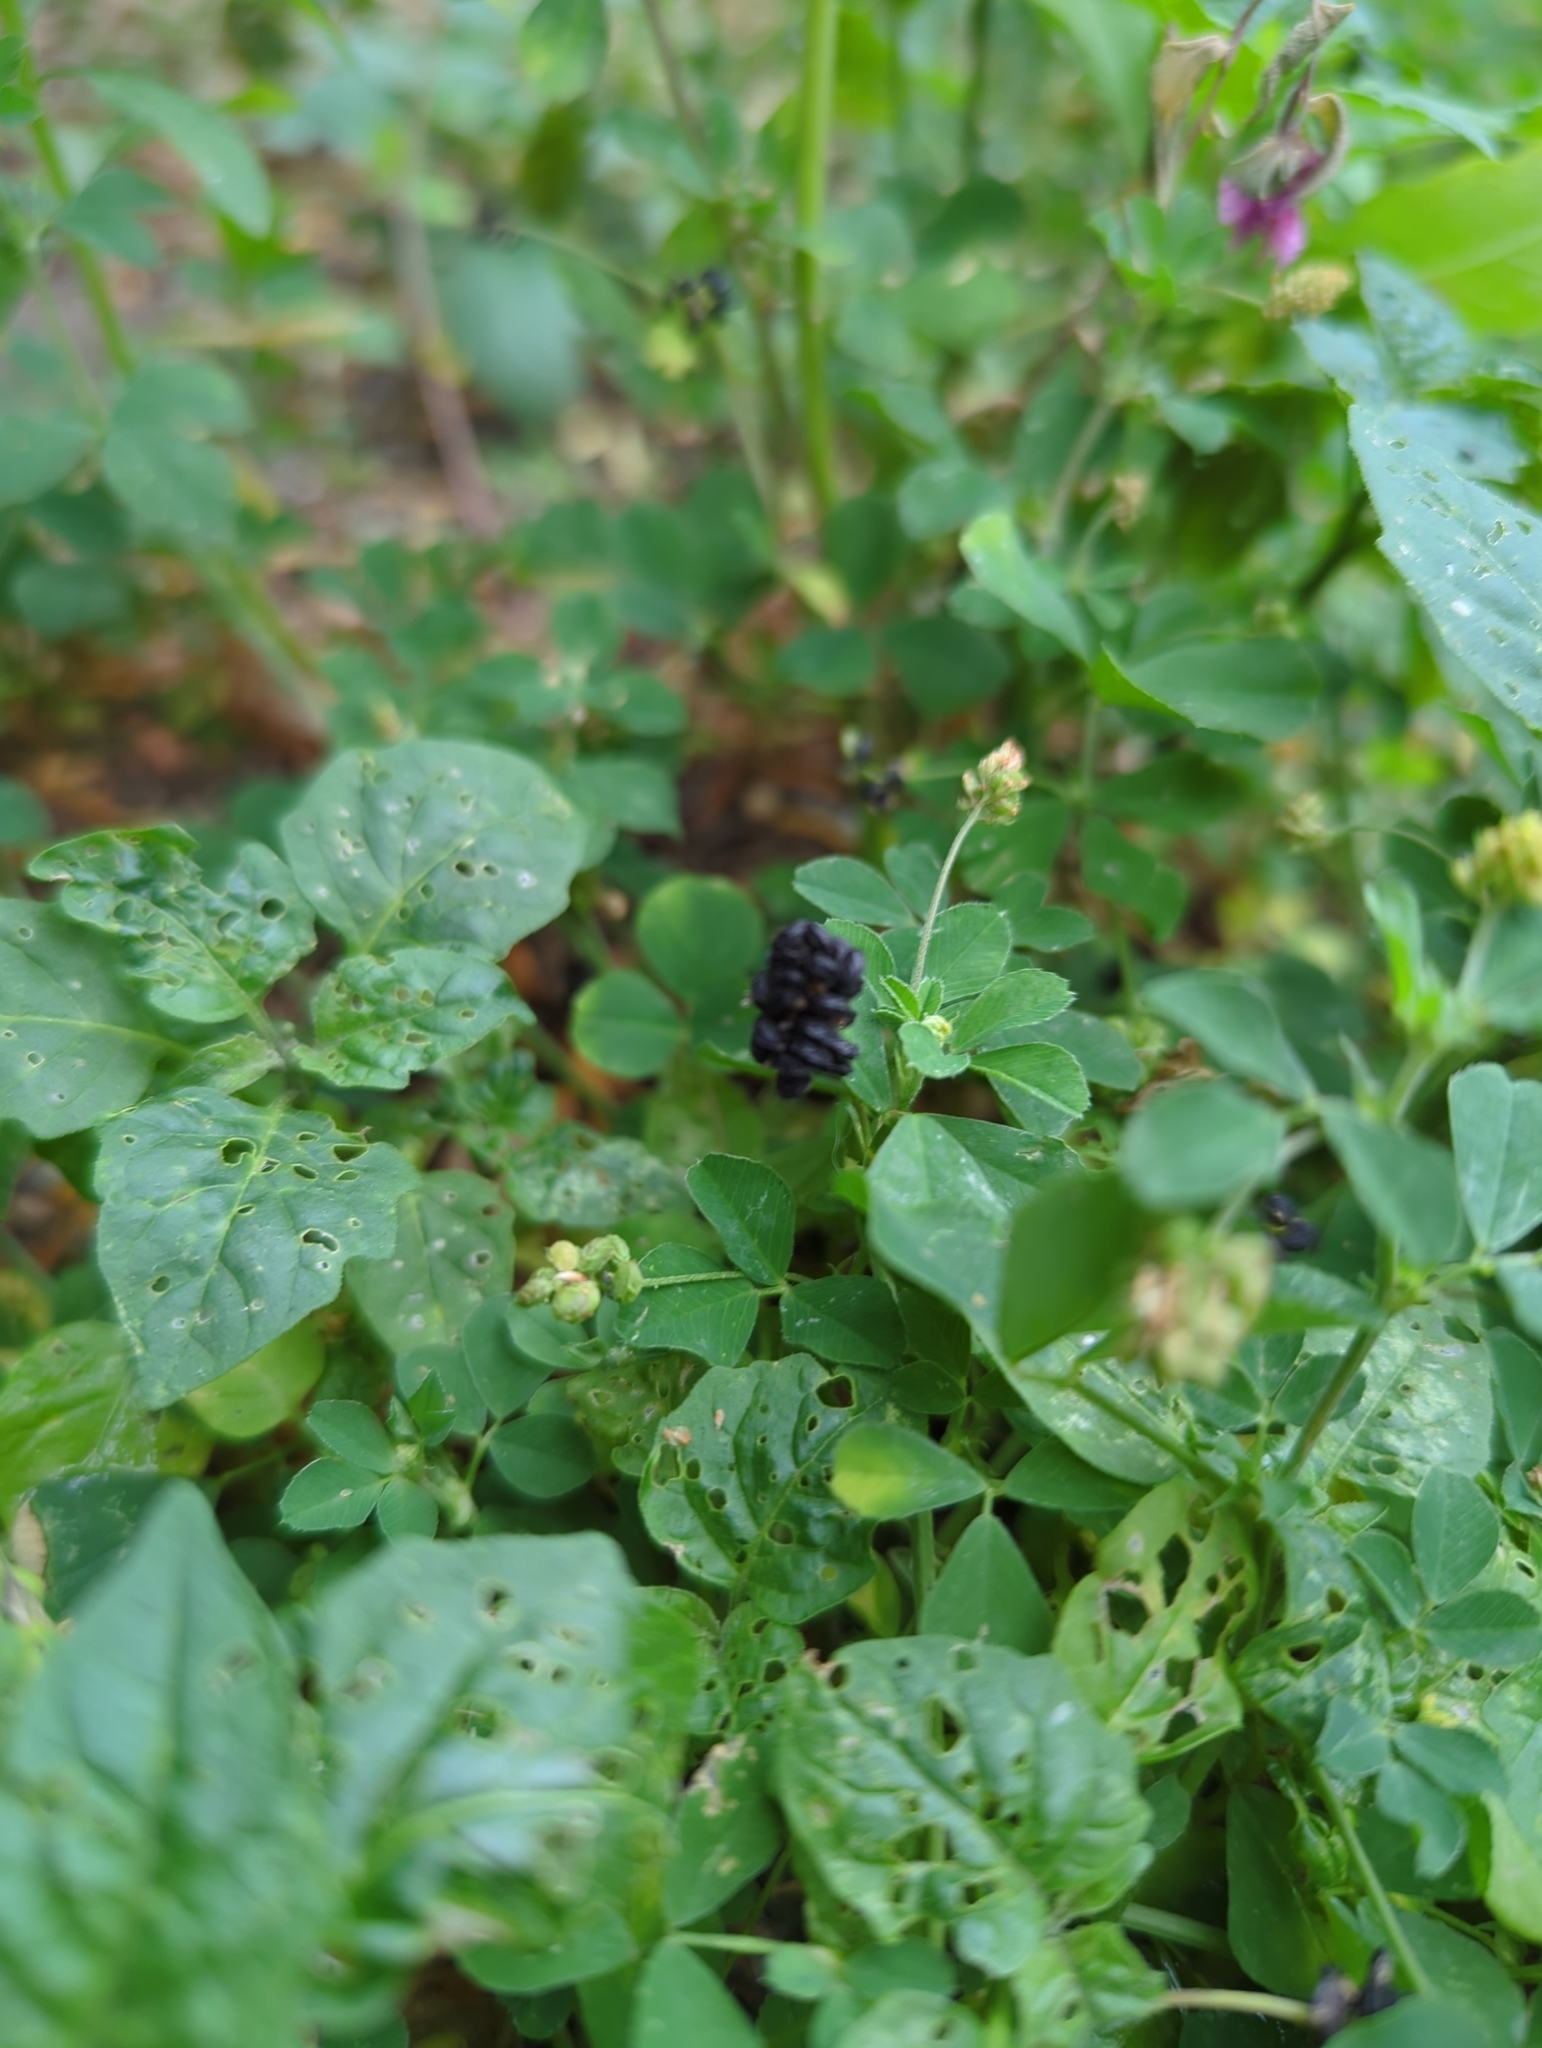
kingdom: Plantae
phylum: Tracheophyta
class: Magnoliopsida
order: Fabales
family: Fabaceae
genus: Medicago
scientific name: Medicago lupulina
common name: Black medick
